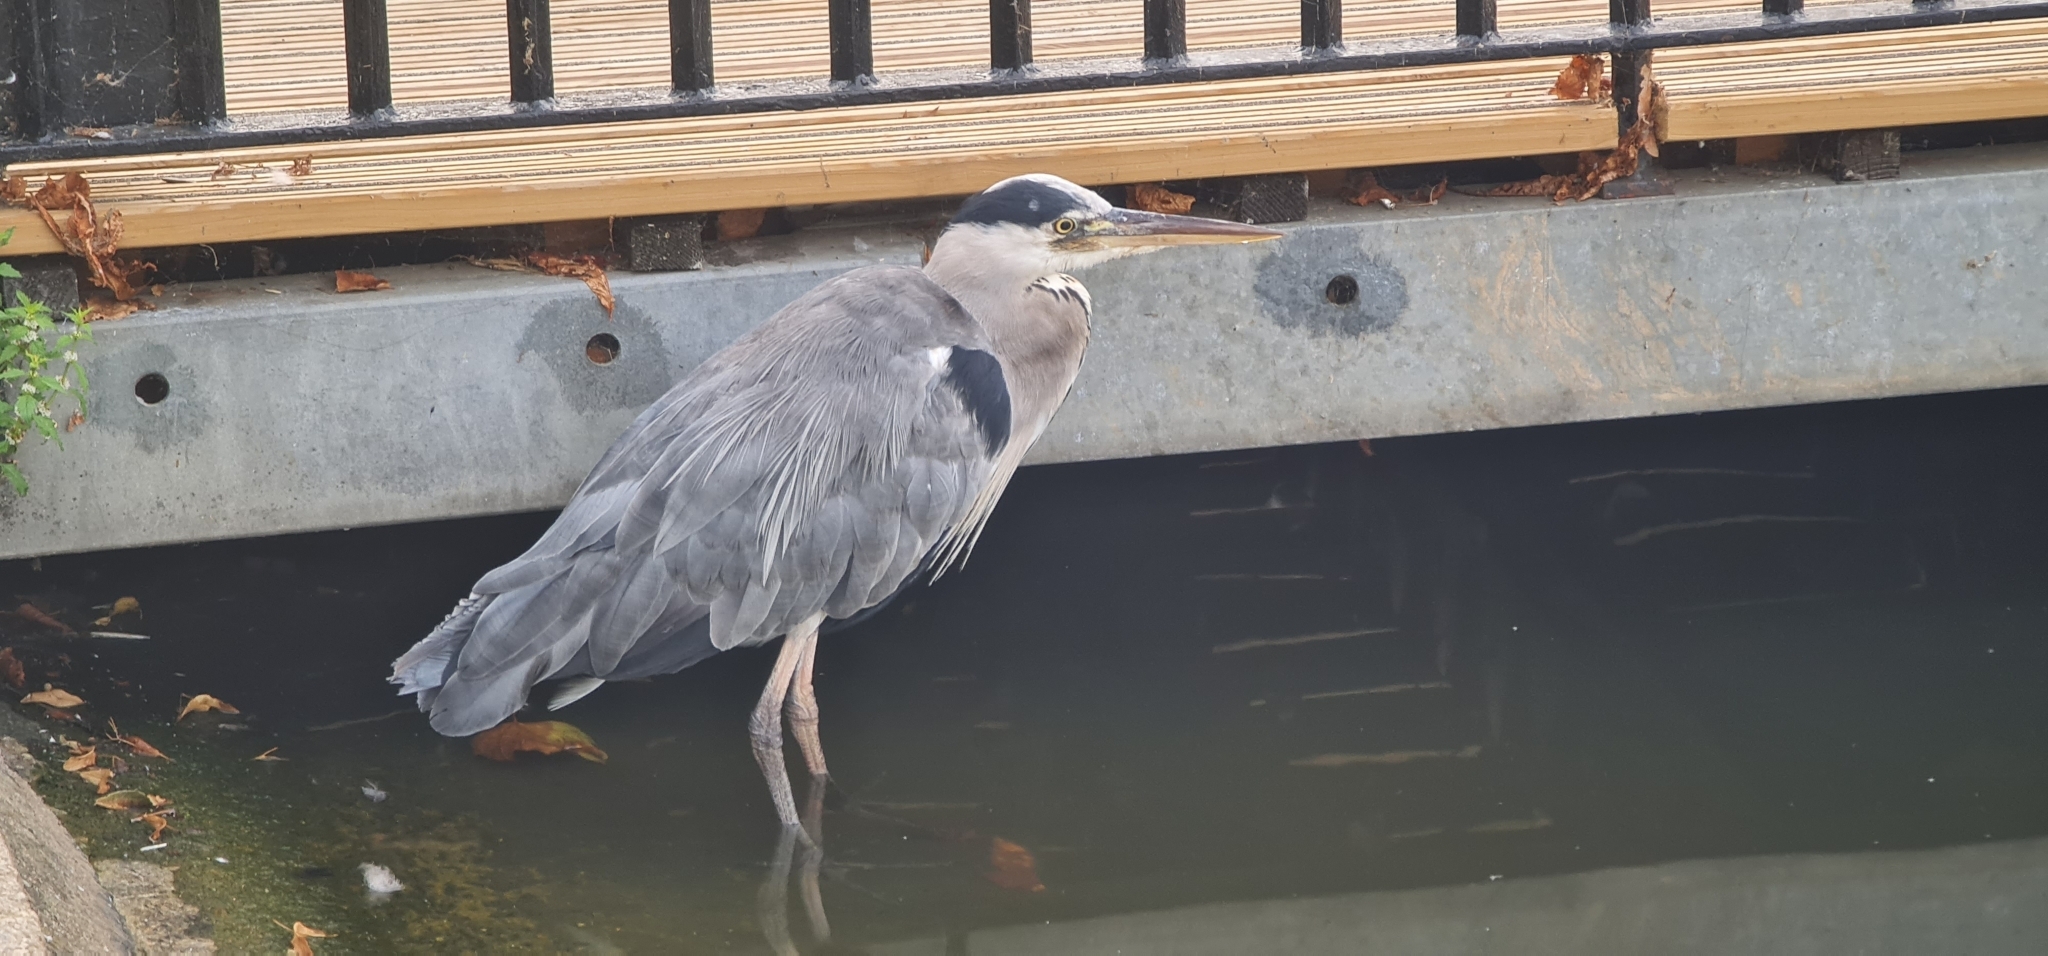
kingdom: Animalia
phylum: Chordata
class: Aves
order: Pelecaniformes
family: Ardeidae
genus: Ardea
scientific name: Ardea cinerea
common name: Grey heron
